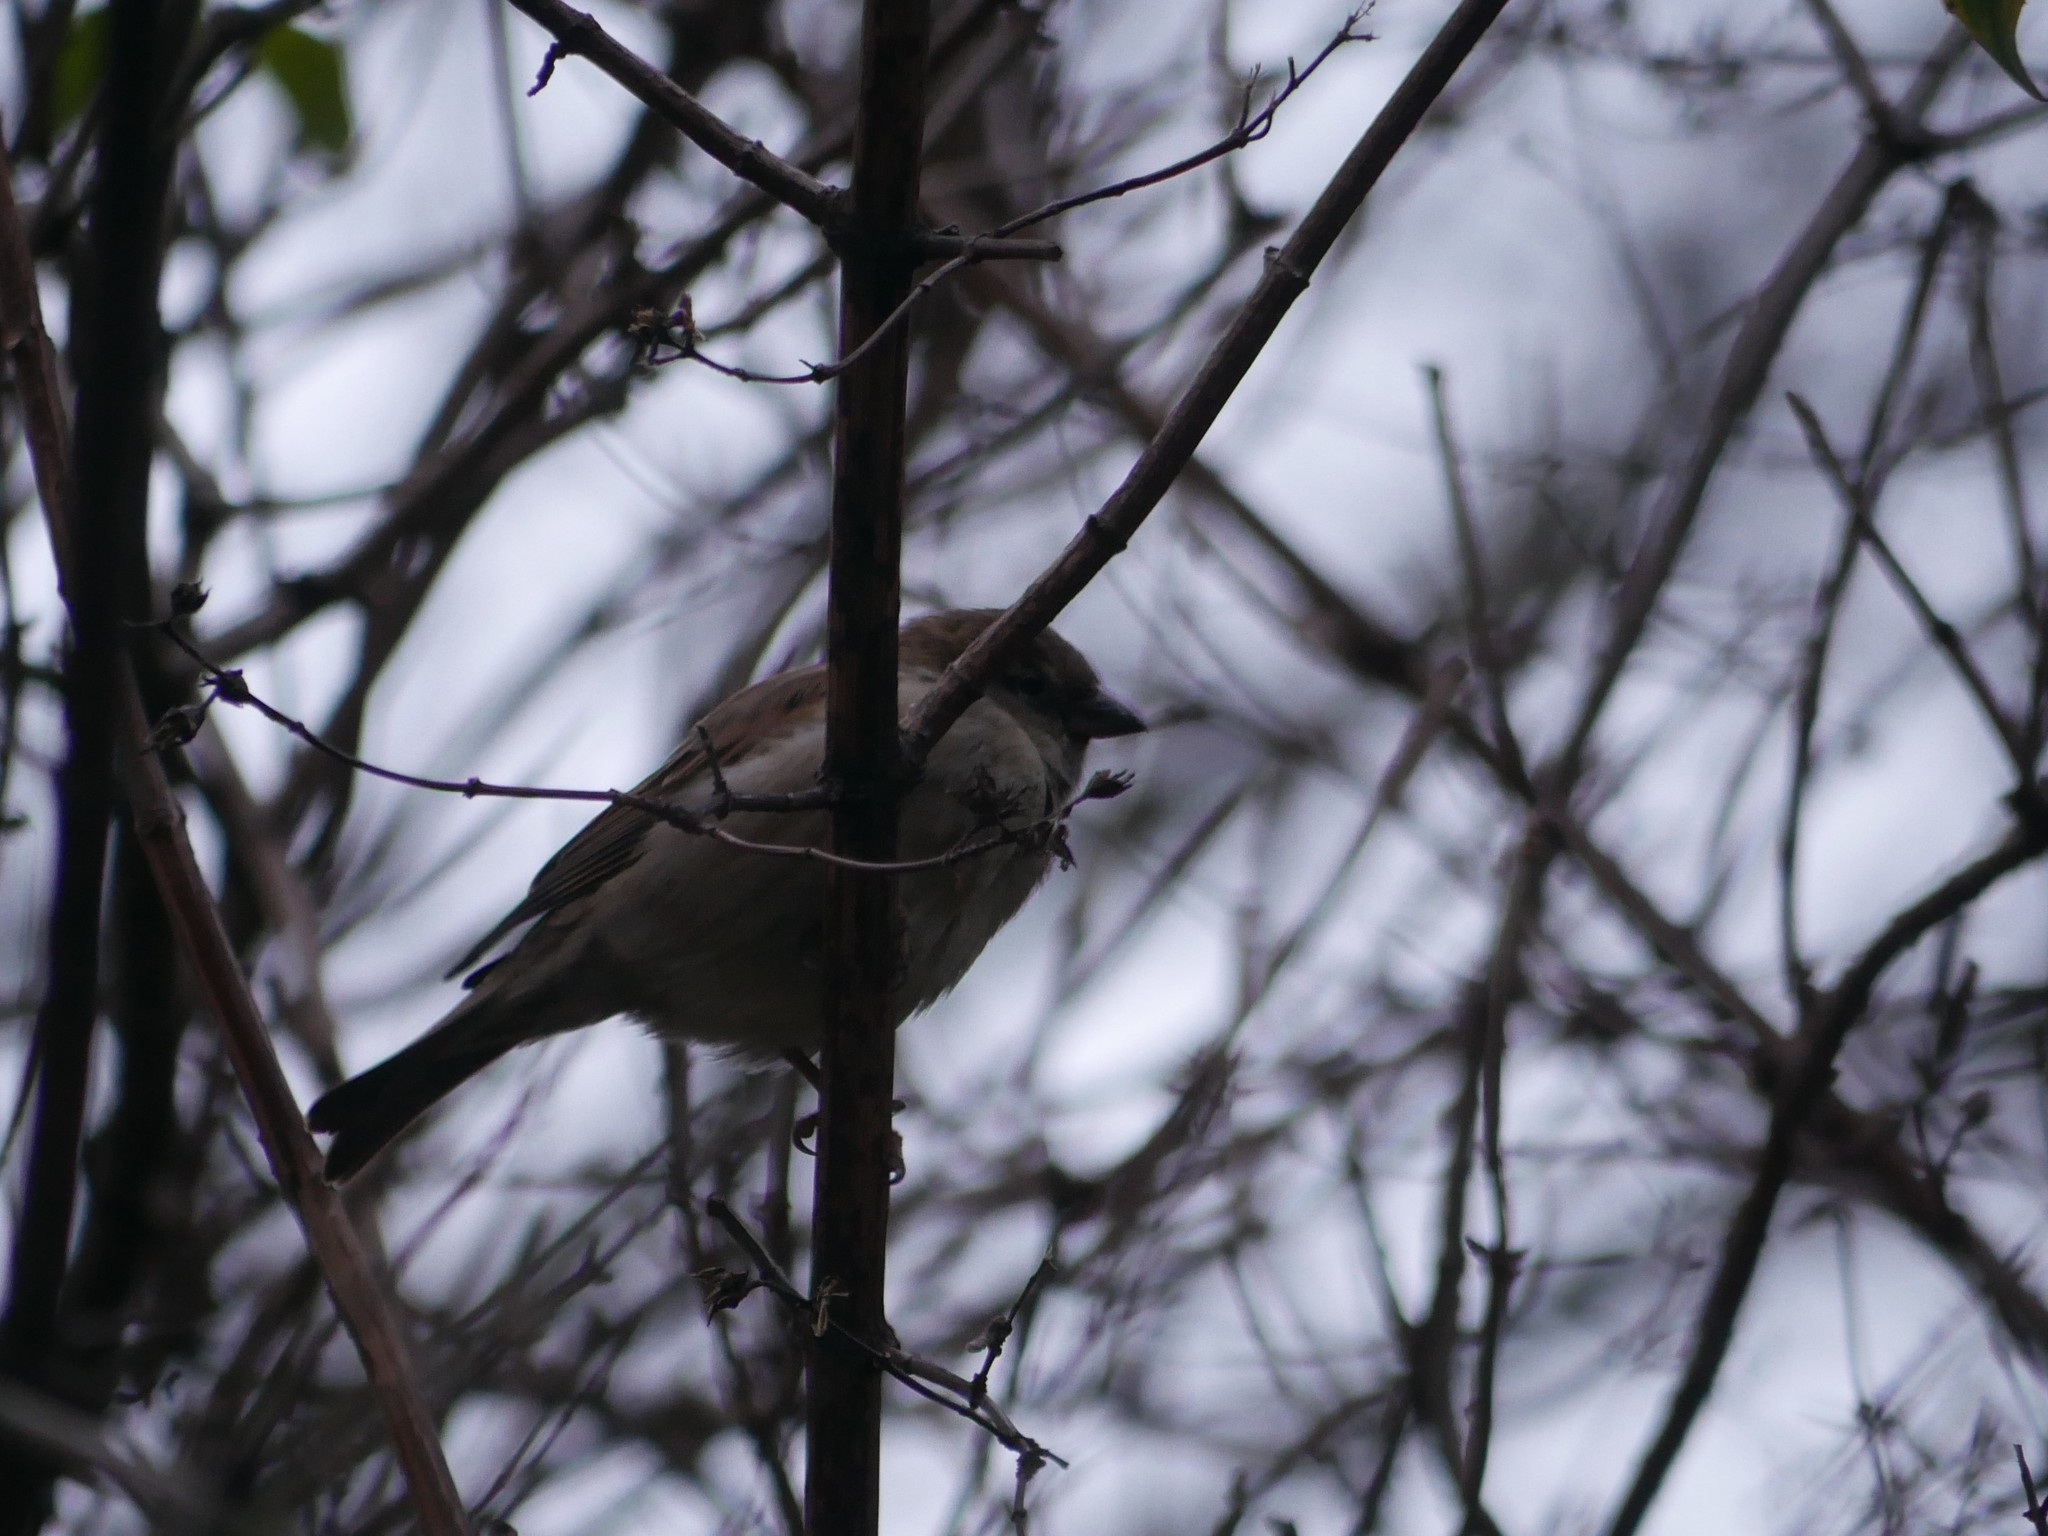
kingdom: Animalia
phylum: Chordata
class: Aves
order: Passeriformes
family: Passeridae
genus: Passer
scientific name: Passer domesticus
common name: House sparrow
